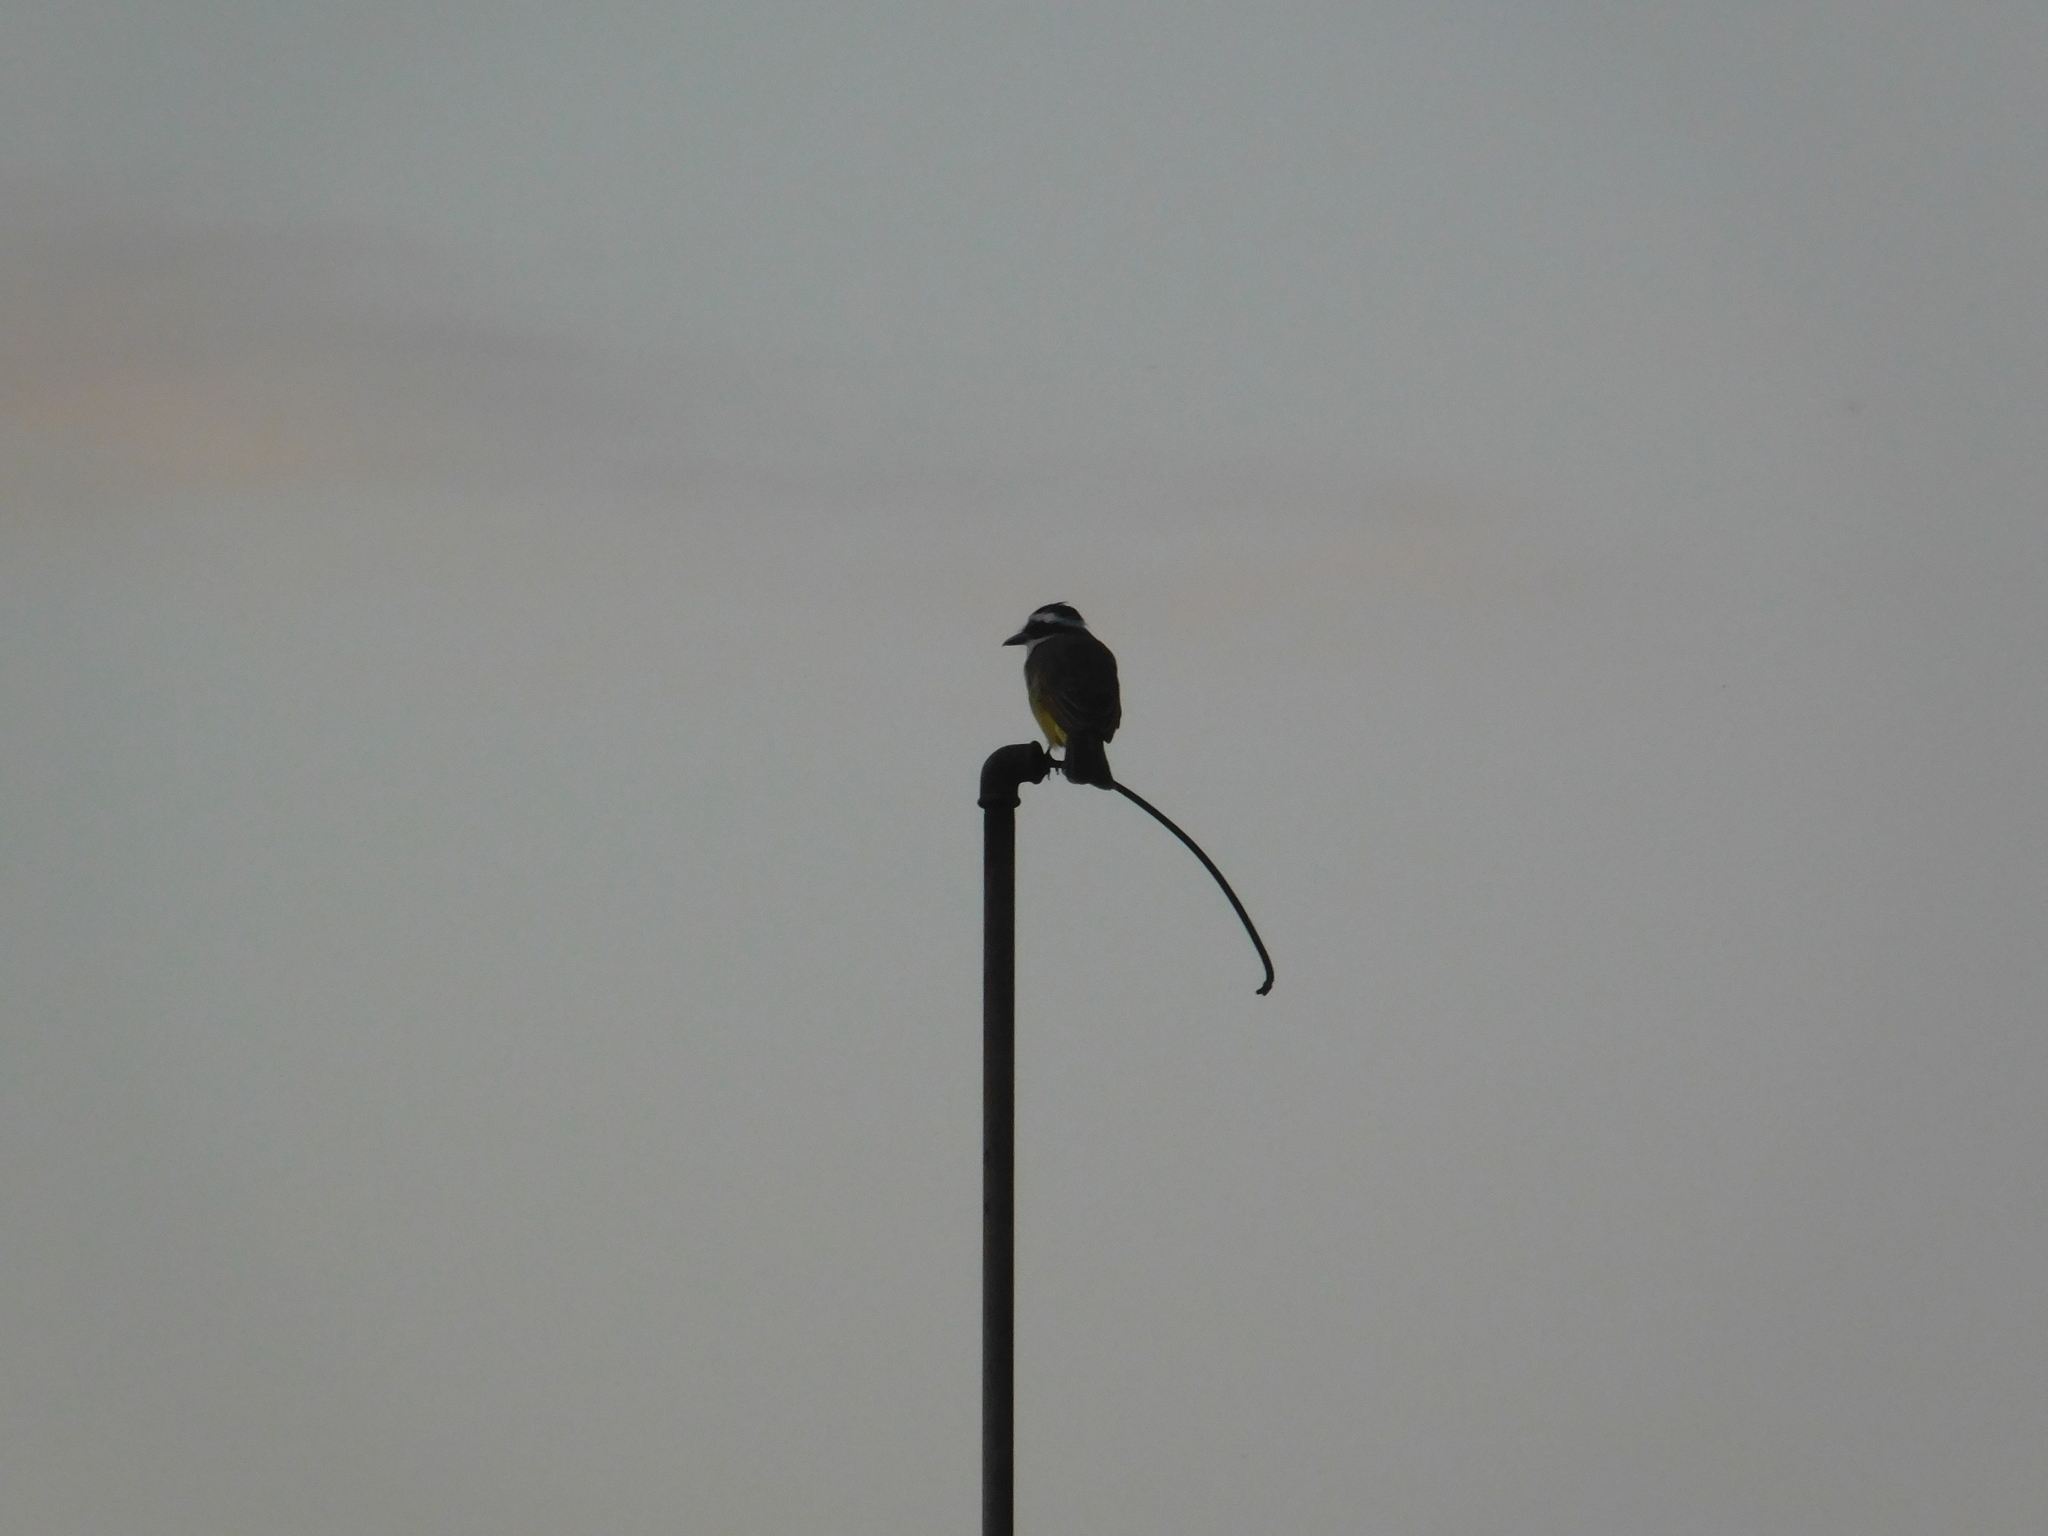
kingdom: Animalia
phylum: Chordata
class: Aves
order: Passeriformes
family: Tyrannidae
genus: Pitangus
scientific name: Pitangus sulphuratus
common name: Great kiskadee
